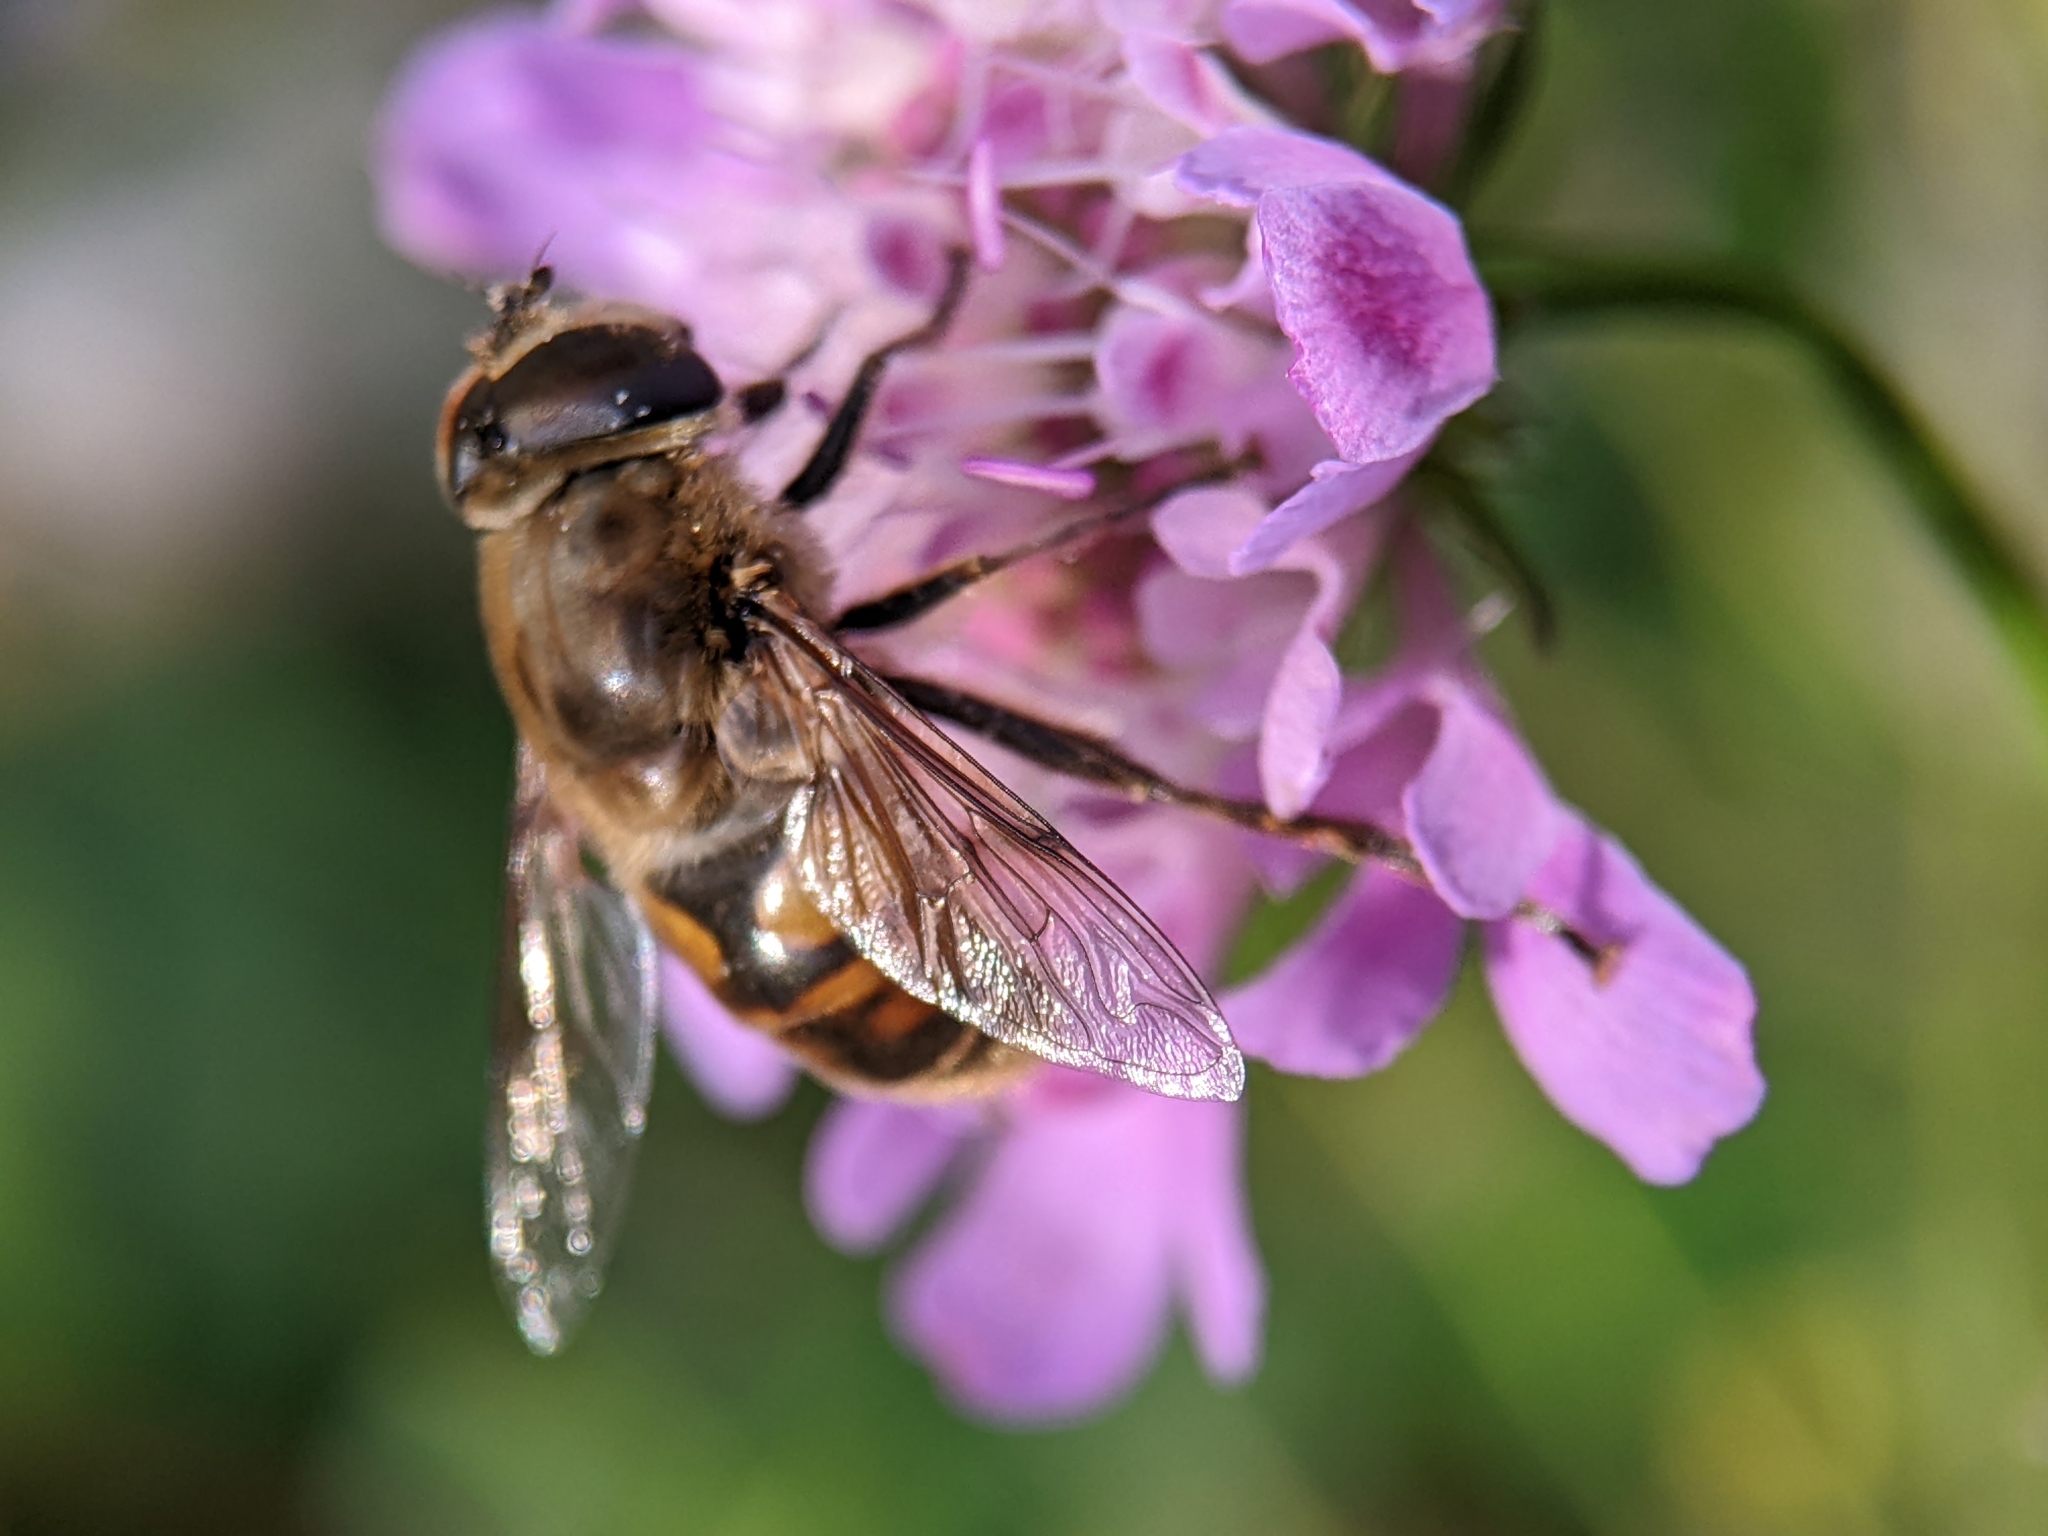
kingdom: Animalia
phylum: Arthropoda
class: Insecta
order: Diptera
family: Syrphidae
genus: Eristalis
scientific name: Eristalis tenax
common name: Drone fly
